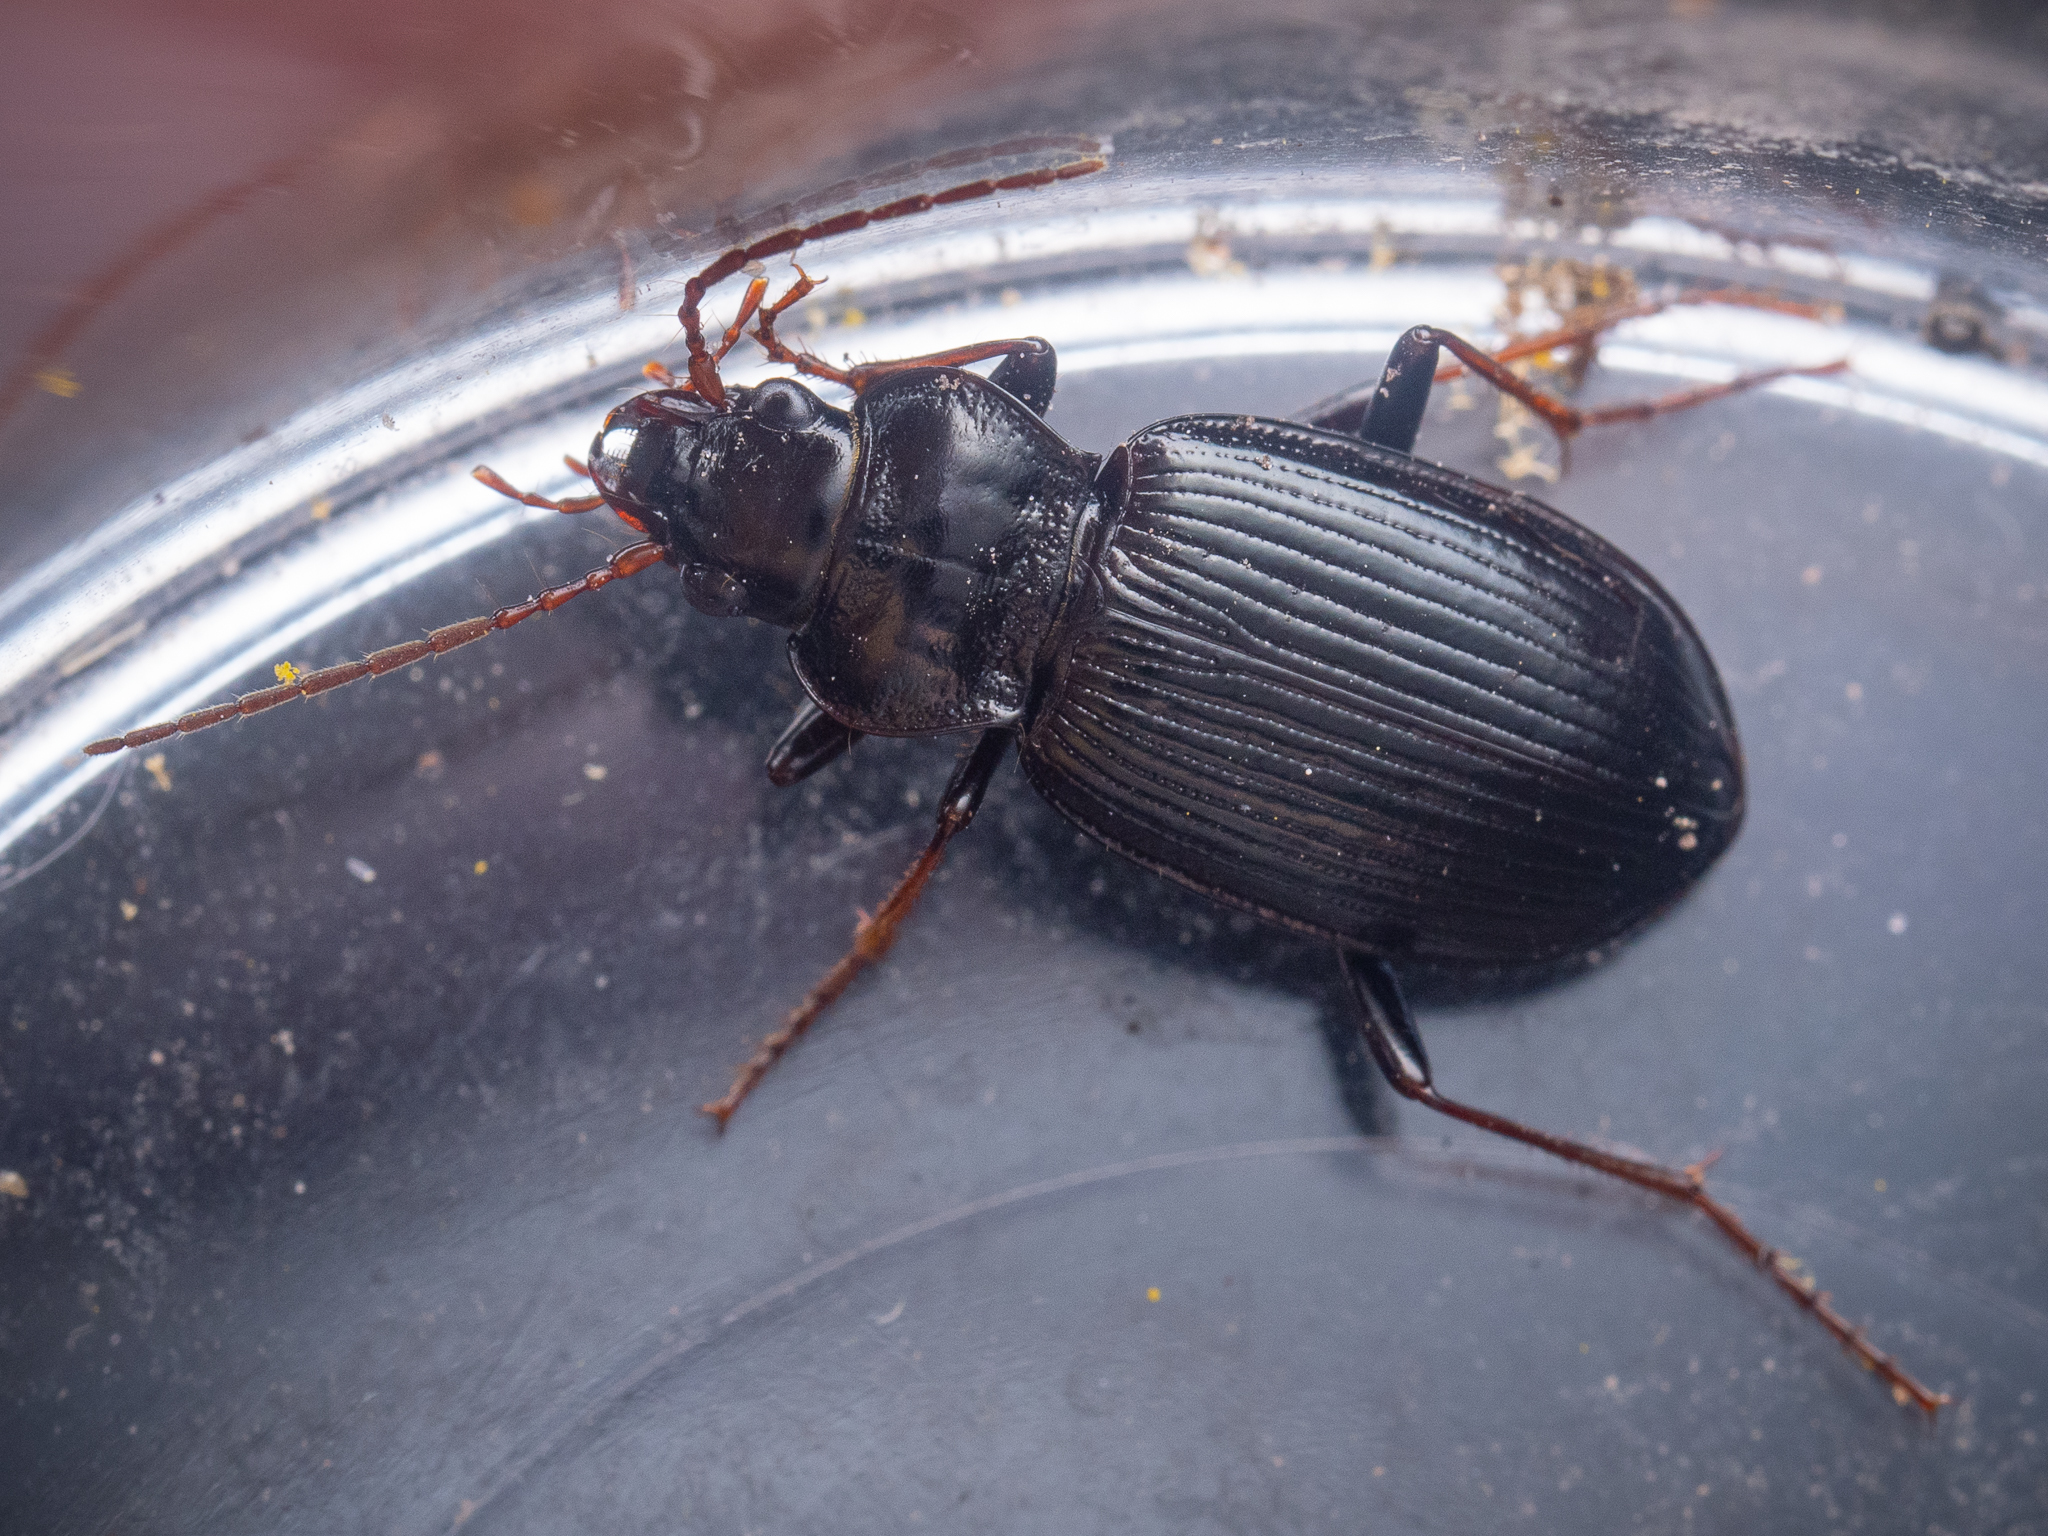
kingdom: Animalia
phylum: Arthropoda
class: Insecta
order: Coleoptera
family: Carabidae
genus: Nebria
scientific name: Nebria brevicollis
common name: Short-necked gazelle beetle
